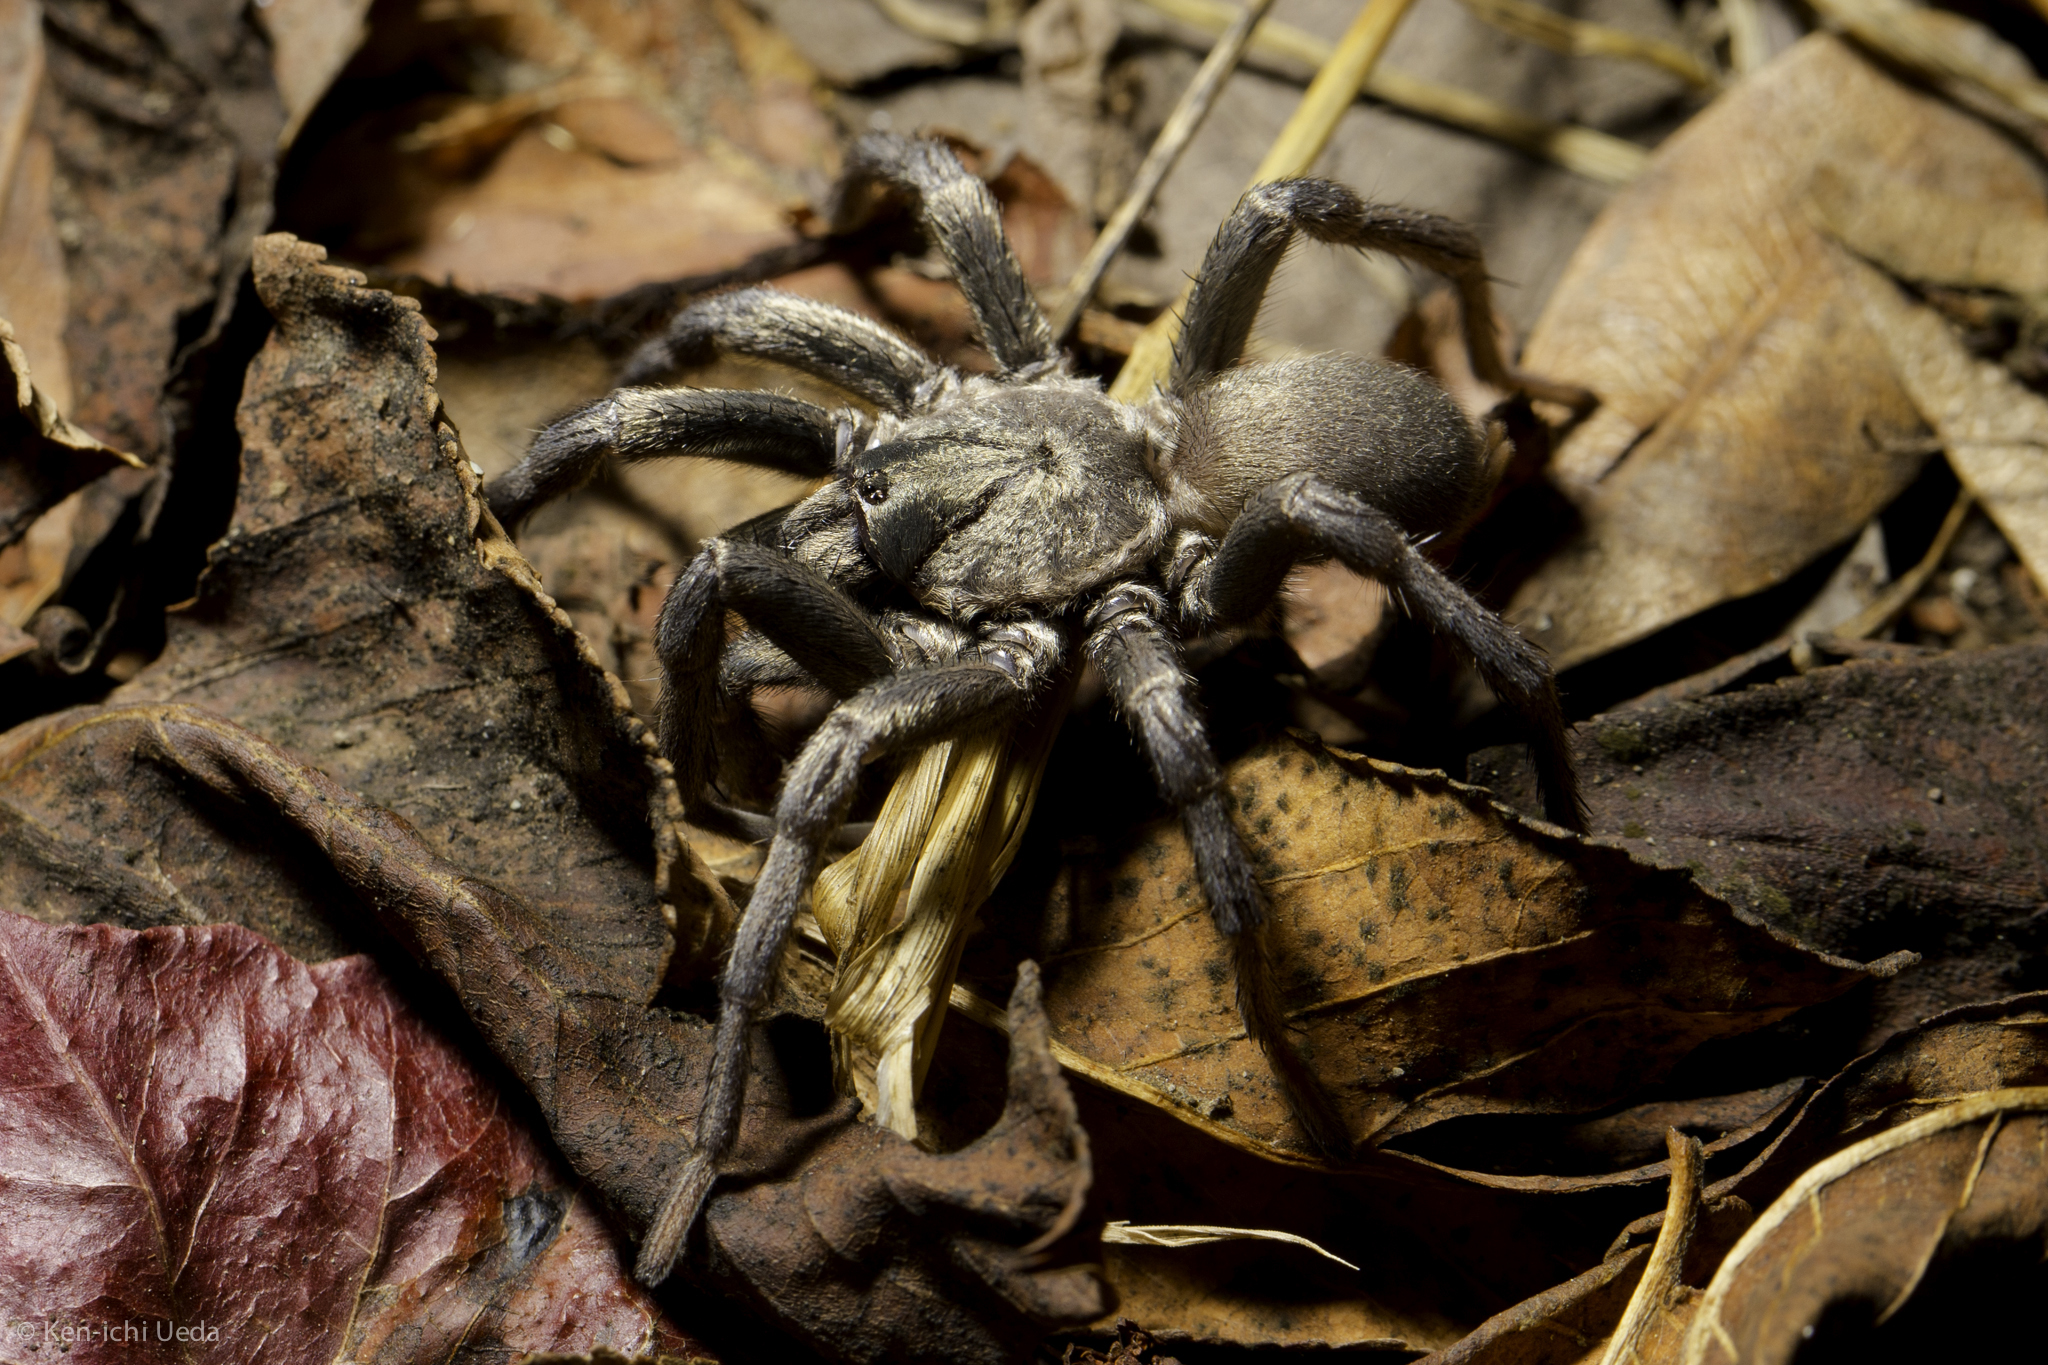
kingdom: Animalia
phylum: Arthropoda
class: Arachnida
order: Araneae
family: Nemesiidae
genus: Calisoga
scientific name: Calisoga longitarsis
